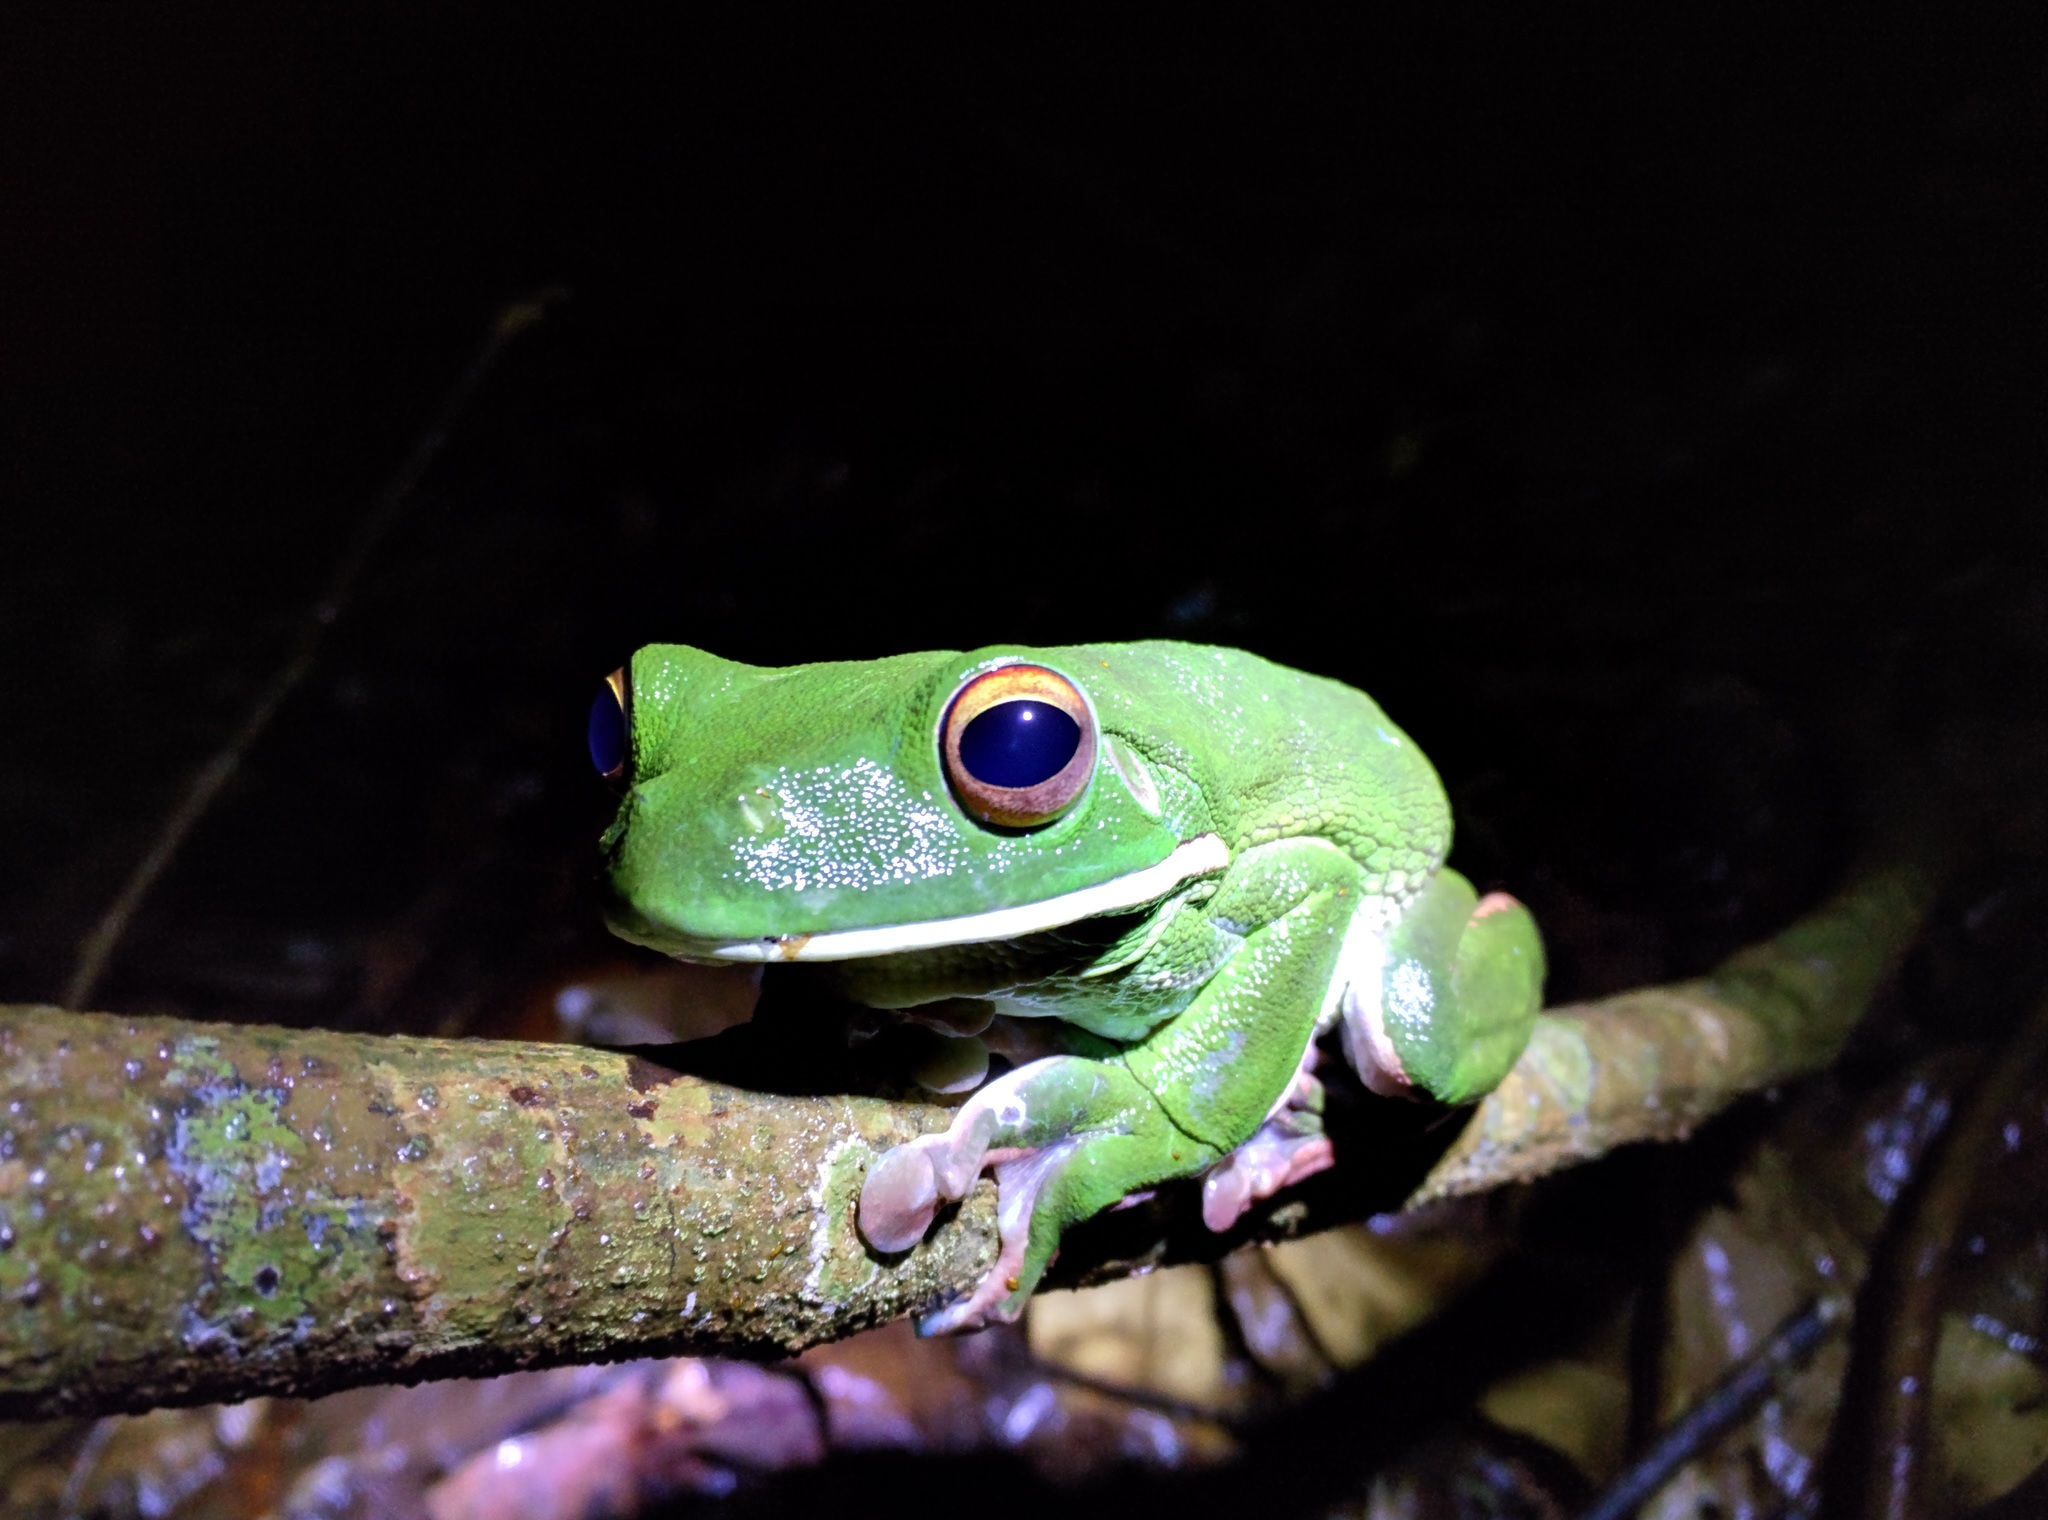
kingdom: Animalia
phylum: Chordata
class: Amphibia
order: Anura
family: Pelodryadidae
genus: Nyctimystes
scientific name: Nyctimystes infrafrenatus
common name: Australian giant treefrog
